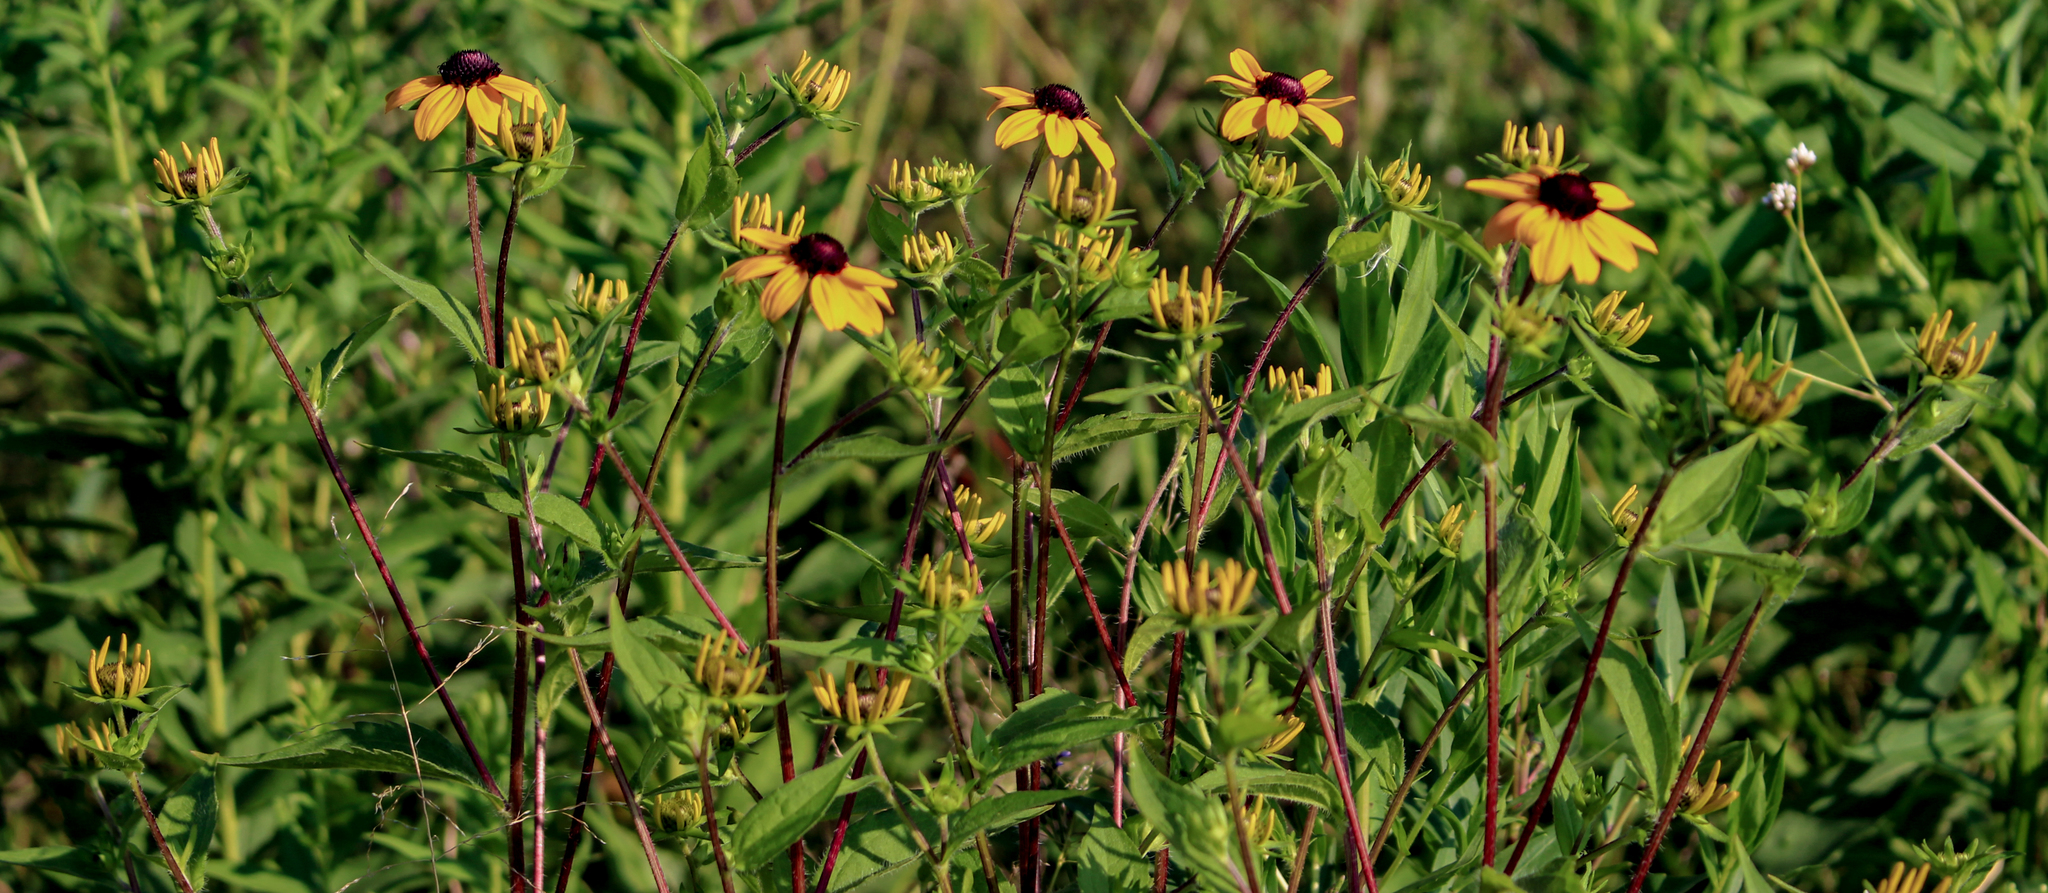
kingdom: Plantae
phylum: Tracheophyta
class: Magnoliopsida
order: Asterales
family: Asteraceae
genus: Rudbeckia
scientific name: Rudbeckia triloba
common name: Thin-leaved coneflower
